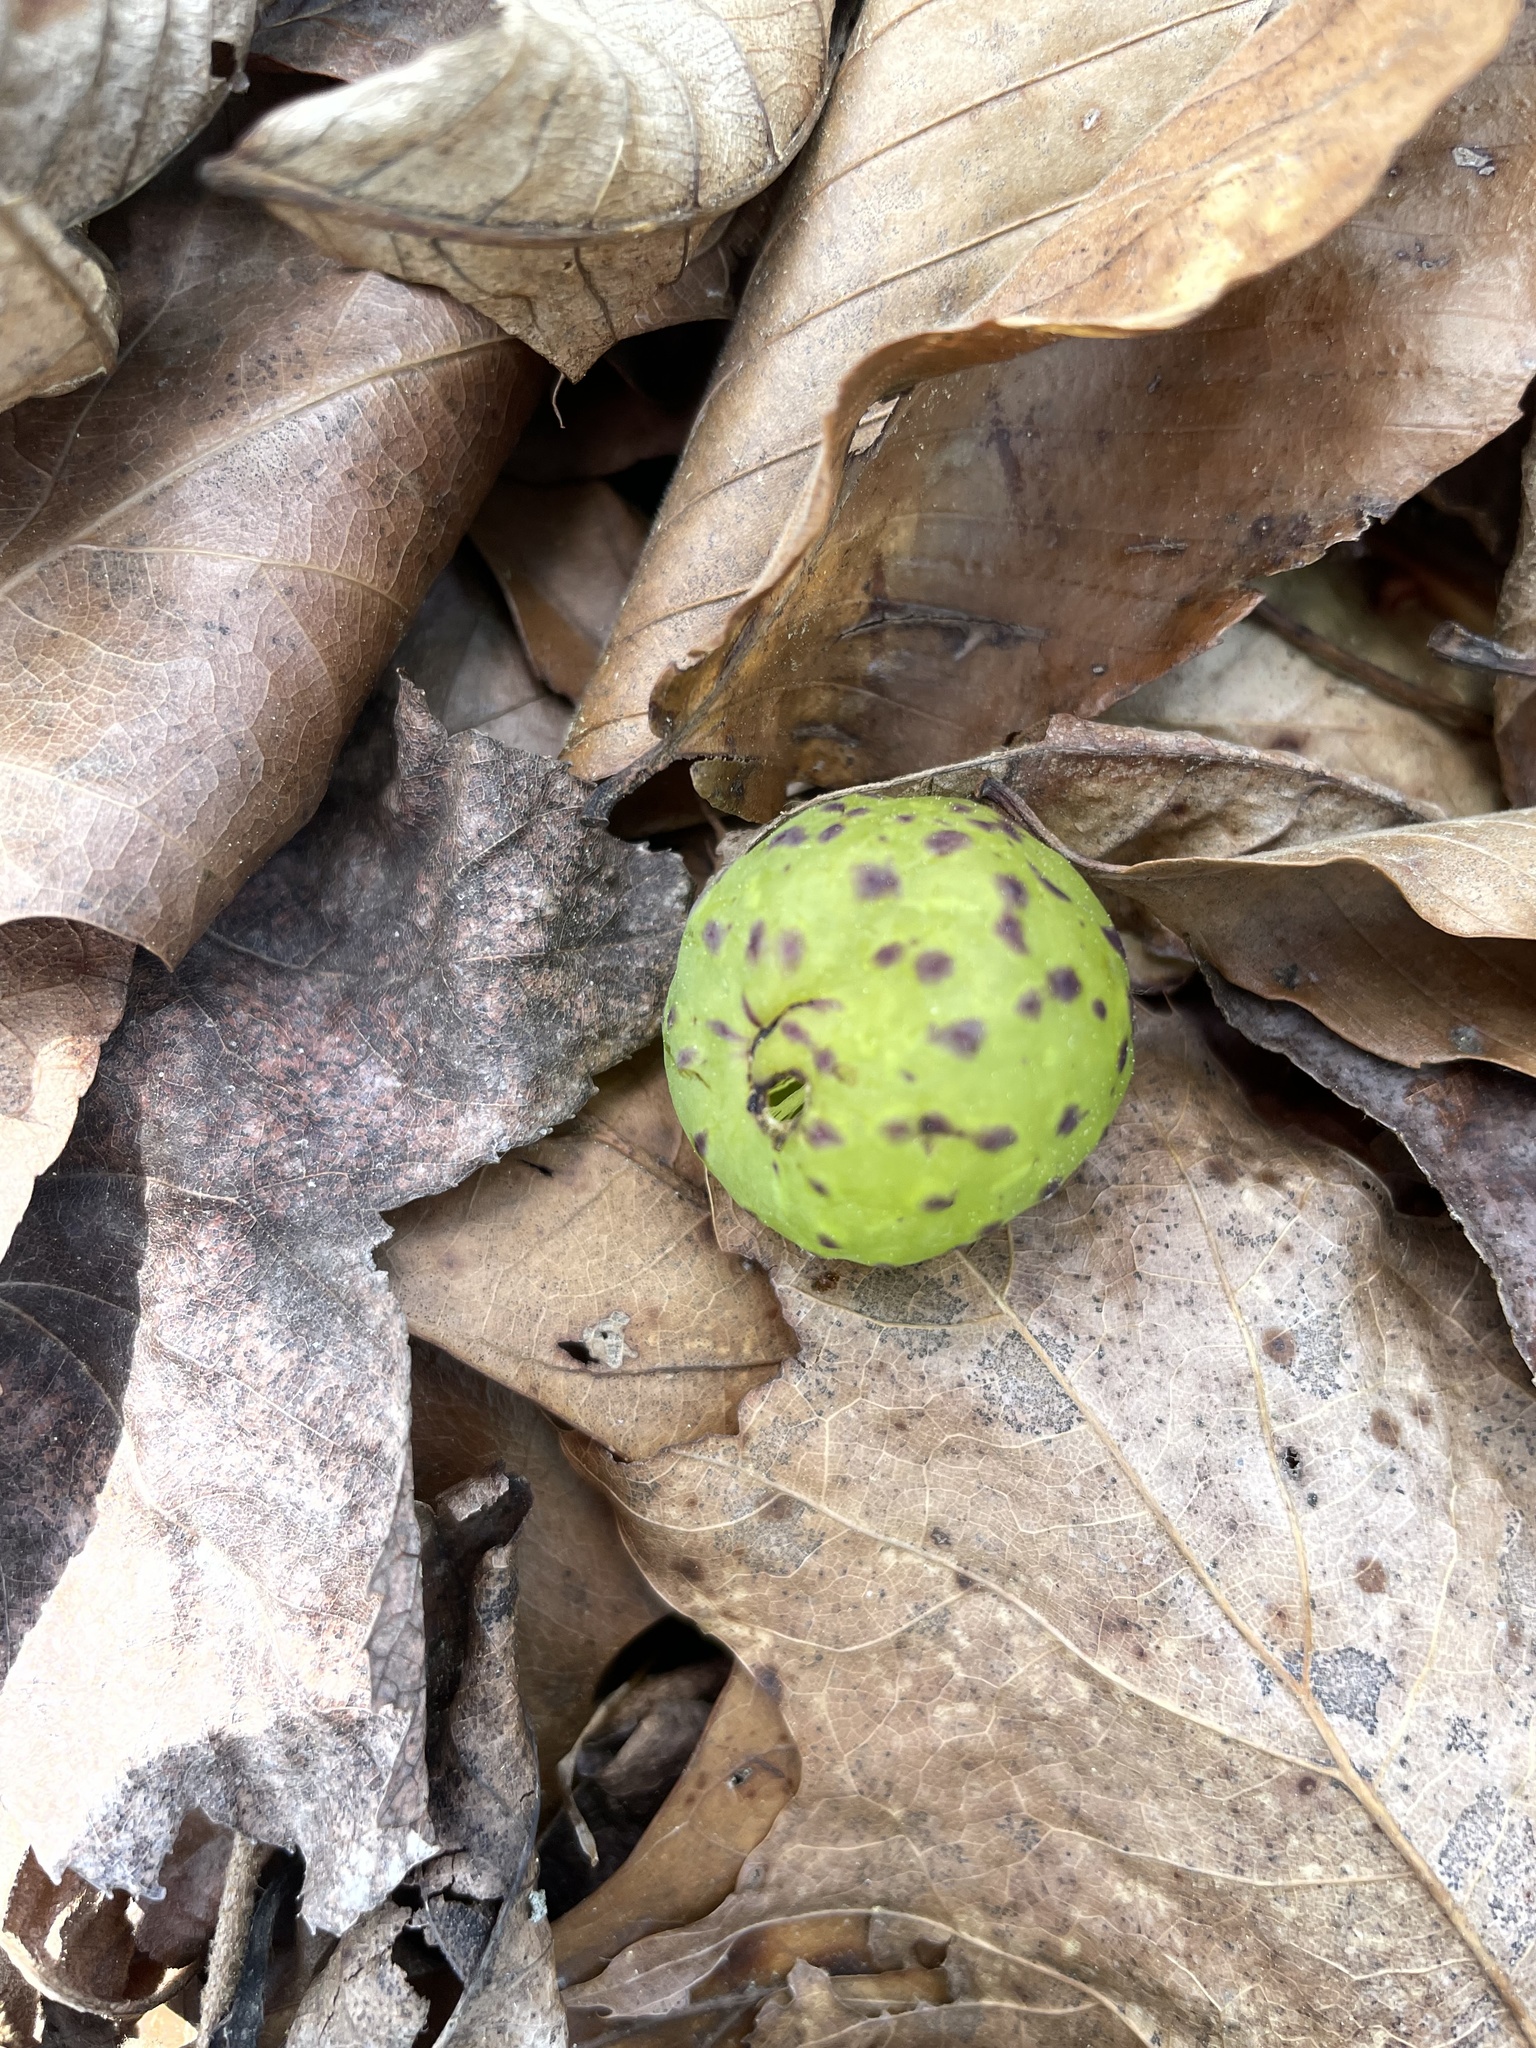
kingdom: Animalia
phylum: Arthropoda
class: Insecta
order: Hymenoptera
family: Cynipidae
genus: Amphibolips
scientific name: Amphibolips
